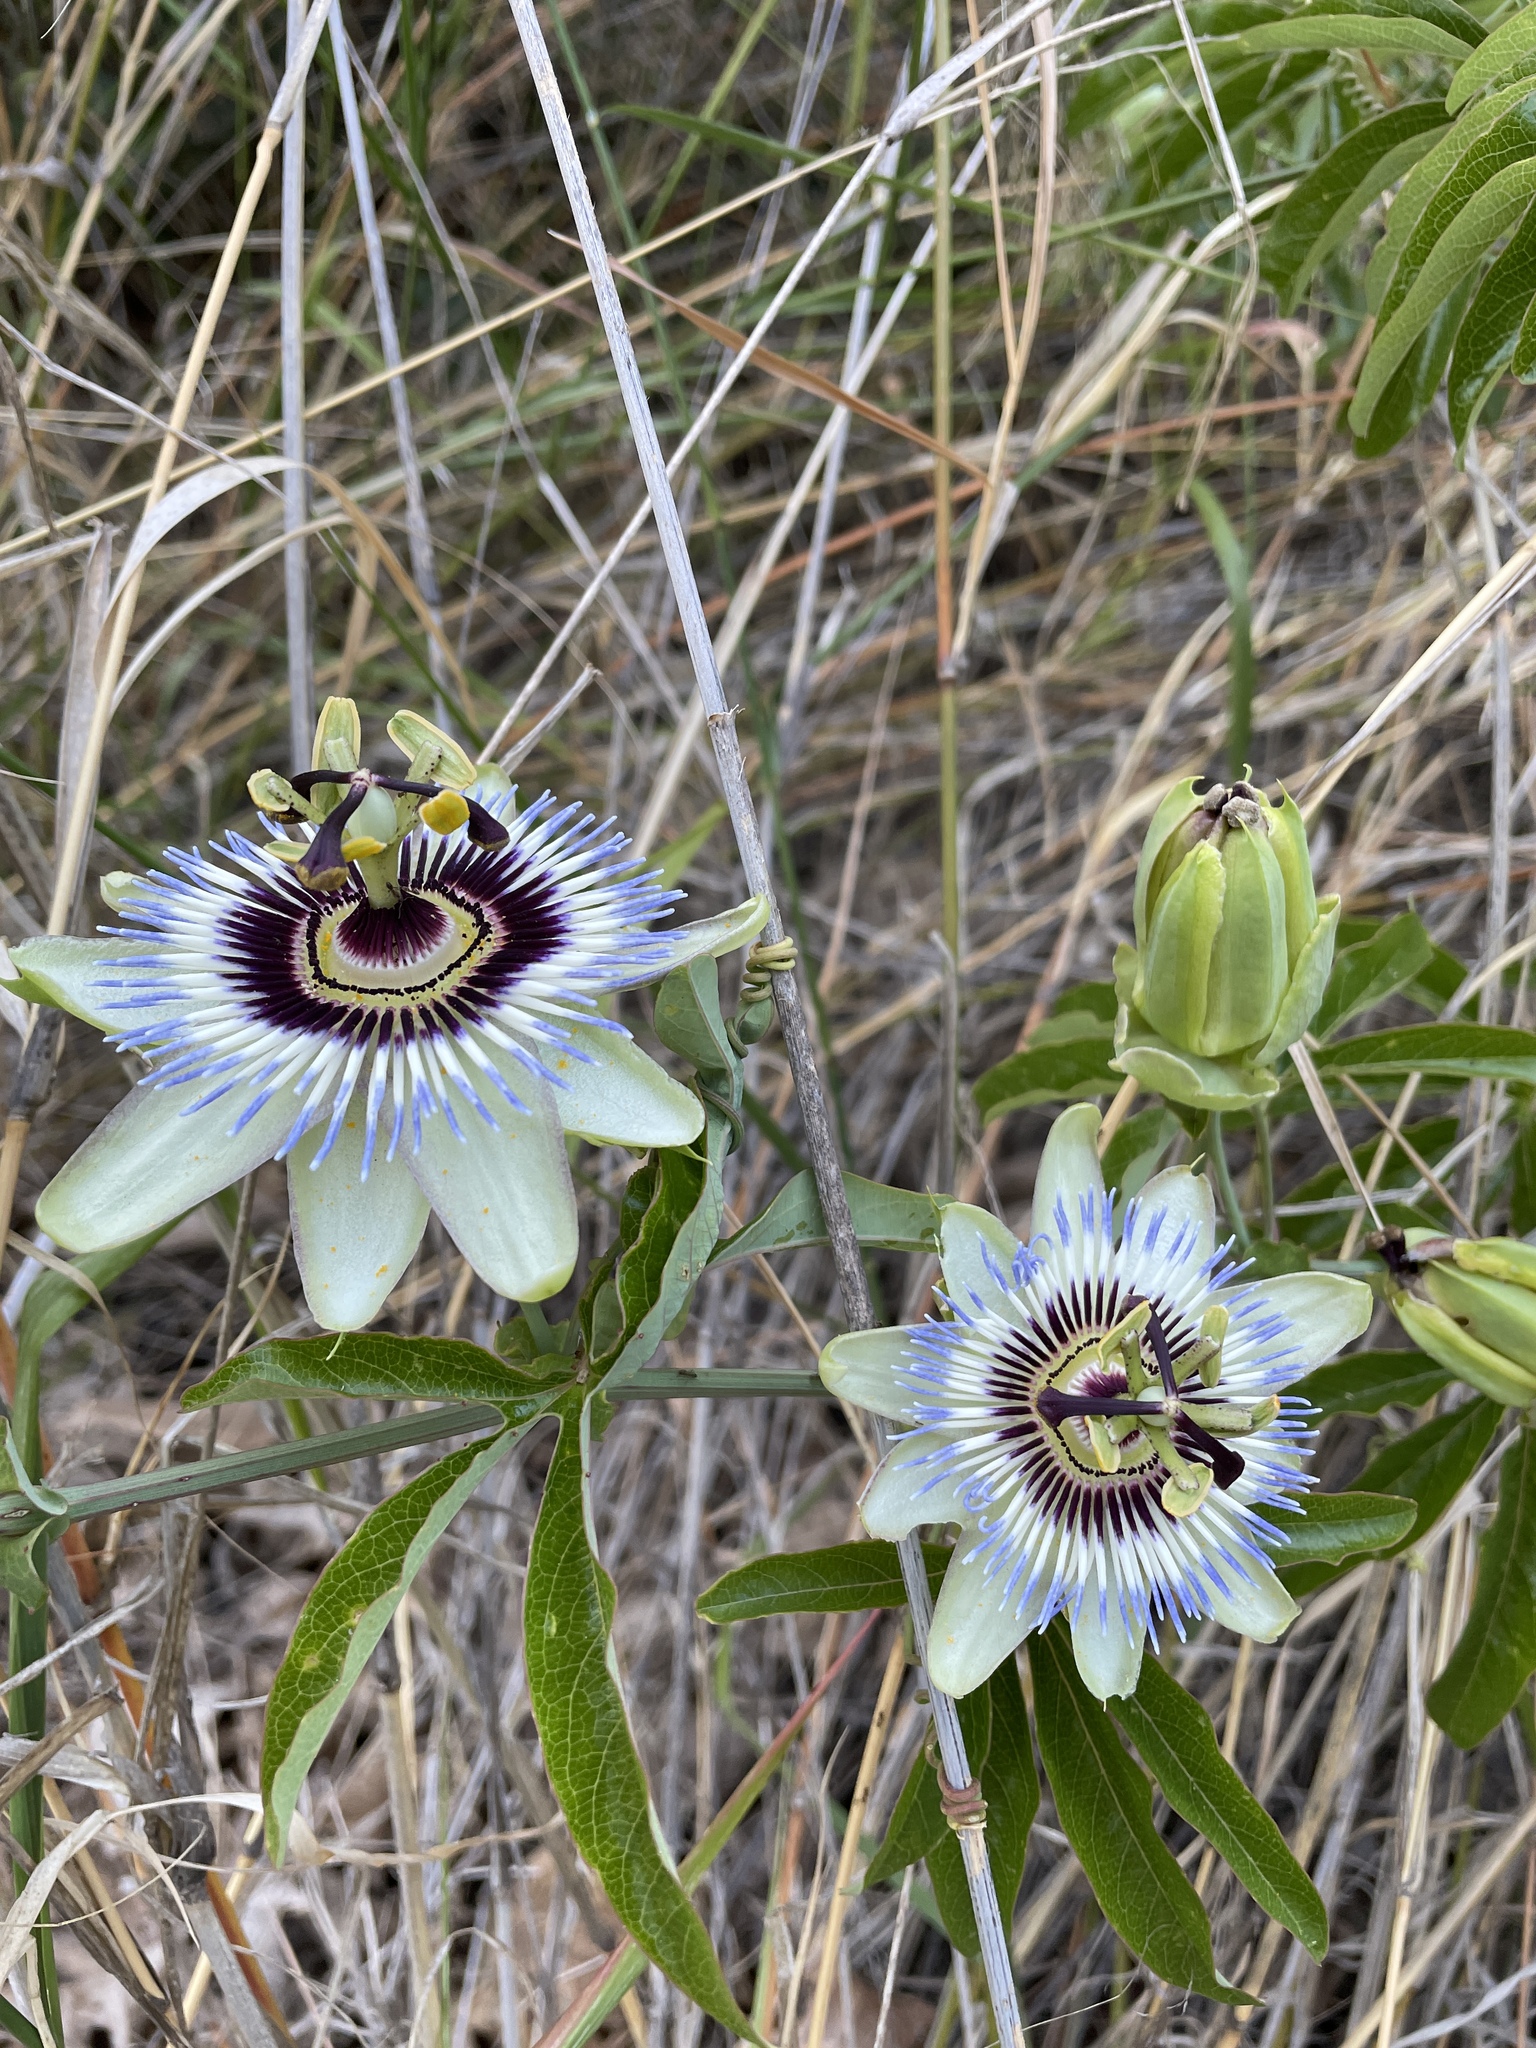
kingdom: Plantae
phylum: Tracheophyta
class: Magnoliopsida
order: Malpighiales
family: Passifloraceae
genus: Passiflora
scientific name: Passiflora caerulea
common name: Blue passionflower
